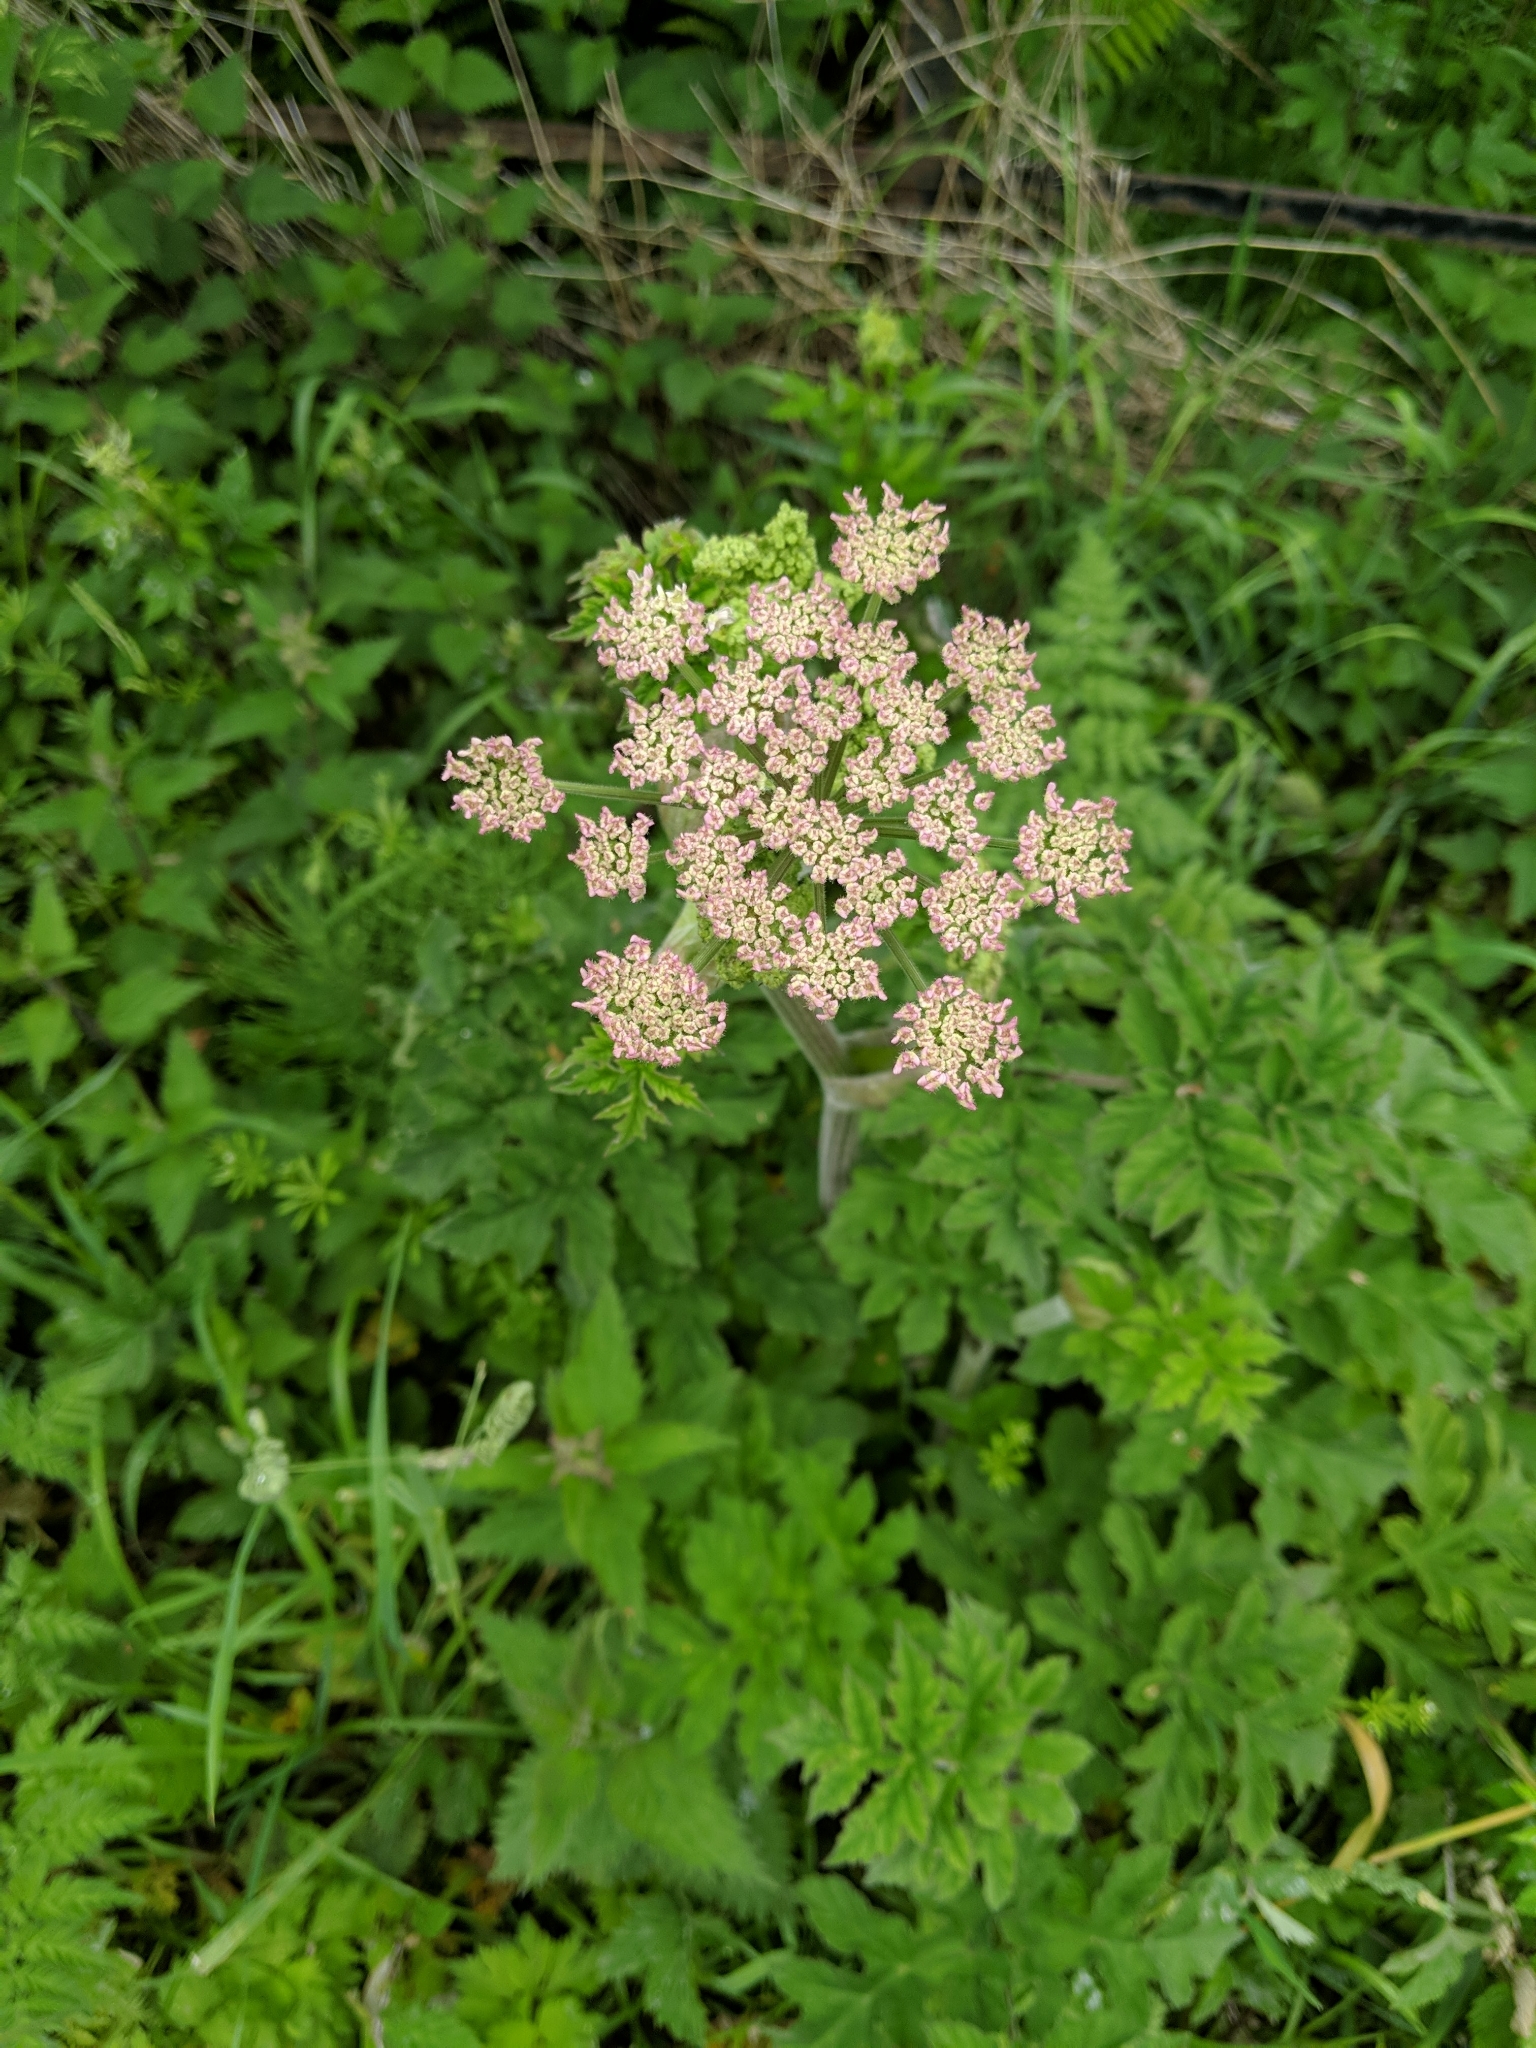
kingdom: Plantae
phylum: Tracheophyta
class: Magnoliopsida
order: Apiales
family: Apiaceae
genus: Heracleum
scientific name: Heracleum sphondylium
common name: Hogweed
